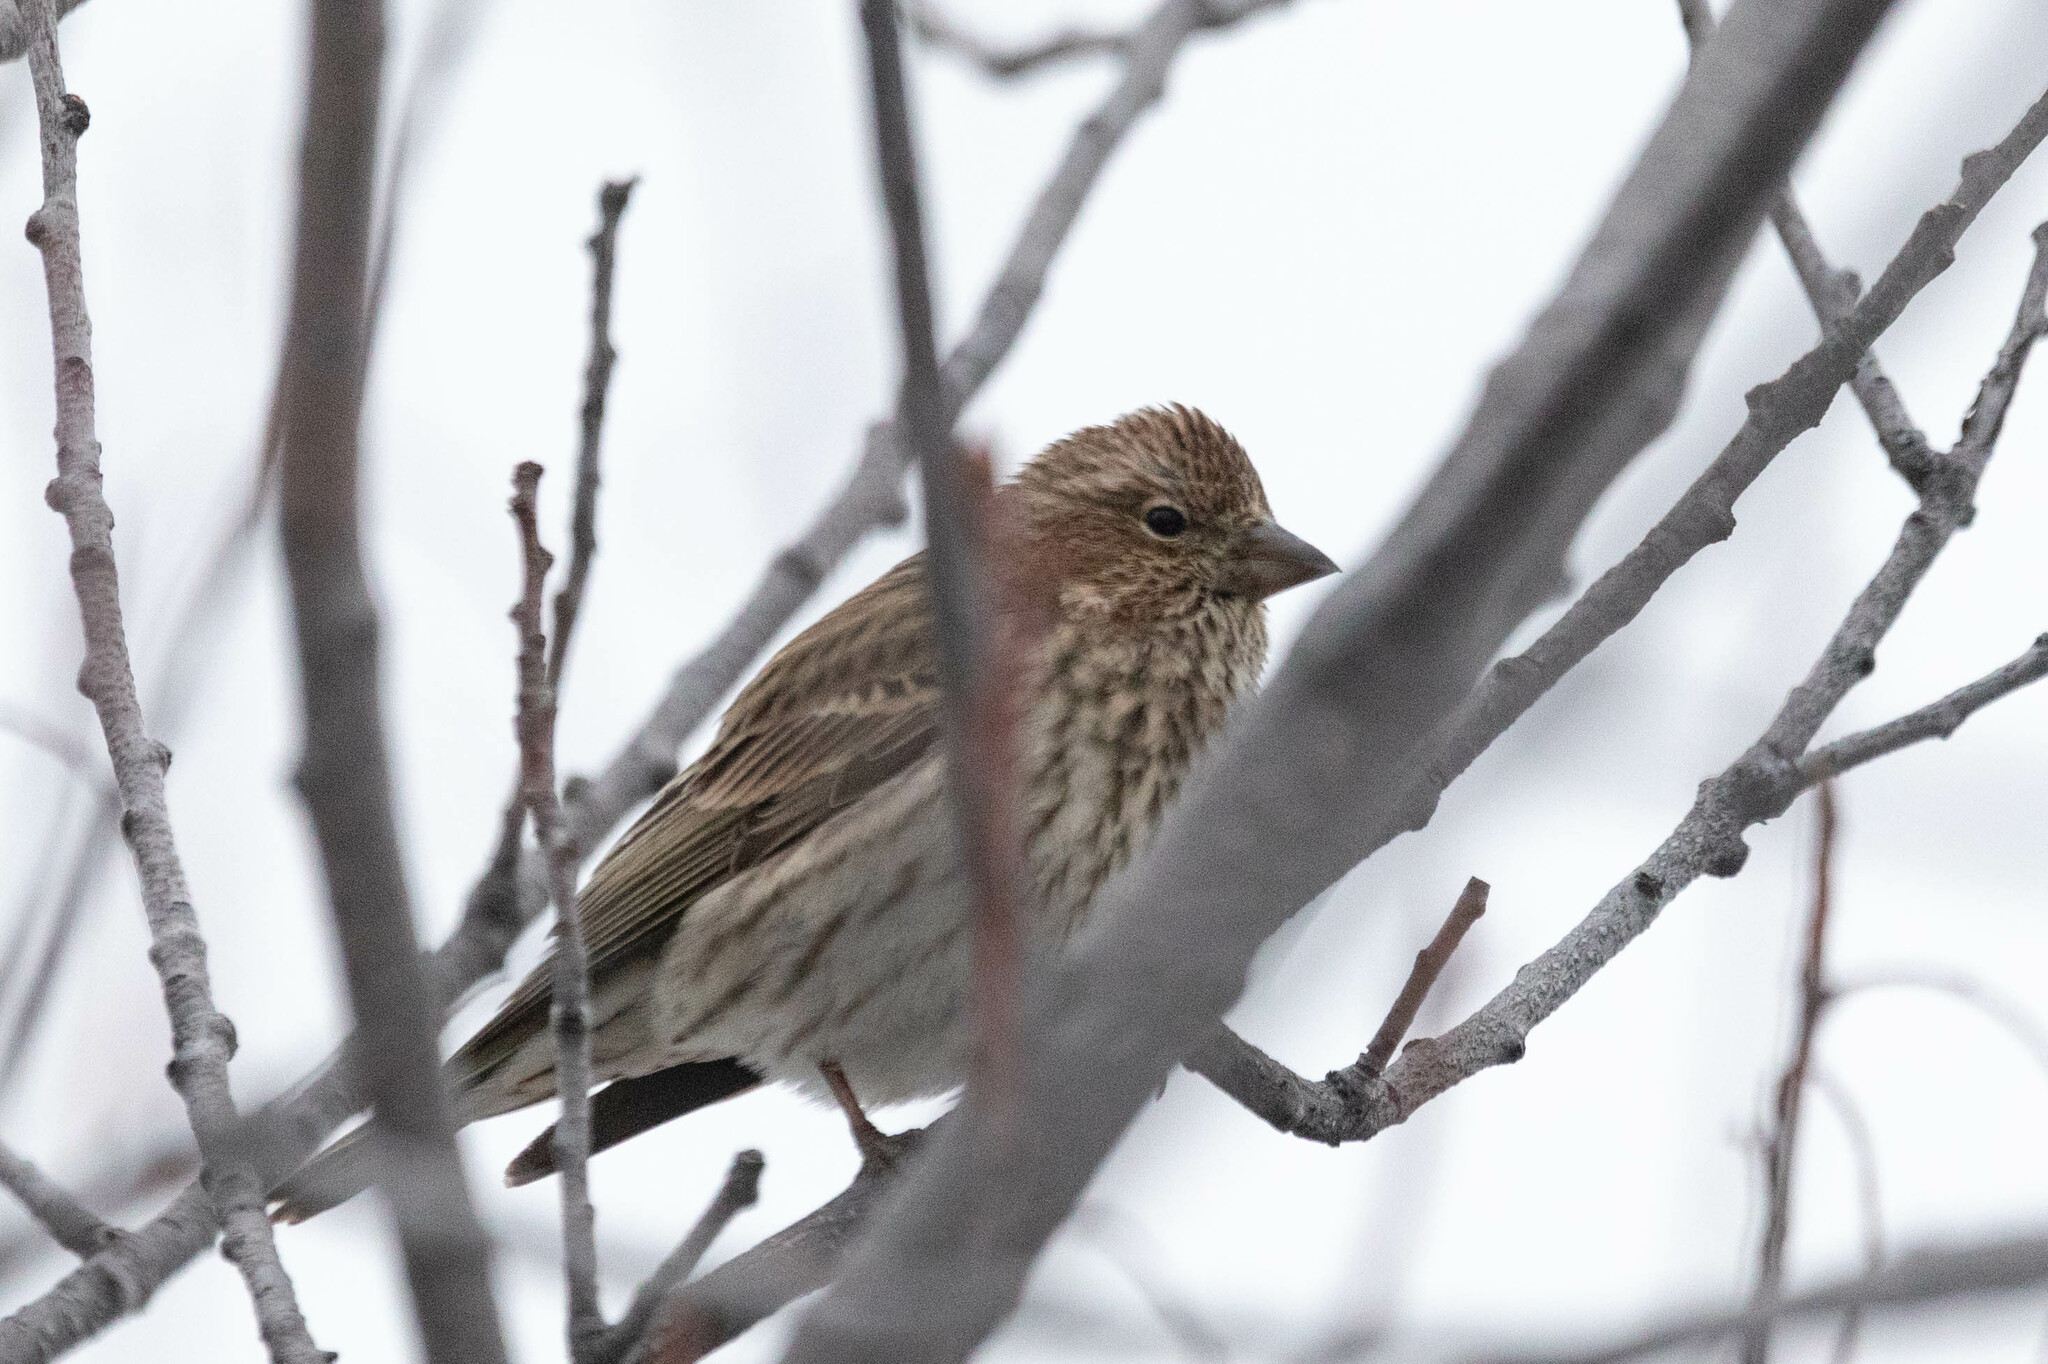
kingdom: Animalia
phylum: Chordata
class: Aves
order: Passeriformes
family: Fringillidae
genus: Haemorhous
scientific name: Haemorhous cassinii
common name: Cassin's finch
